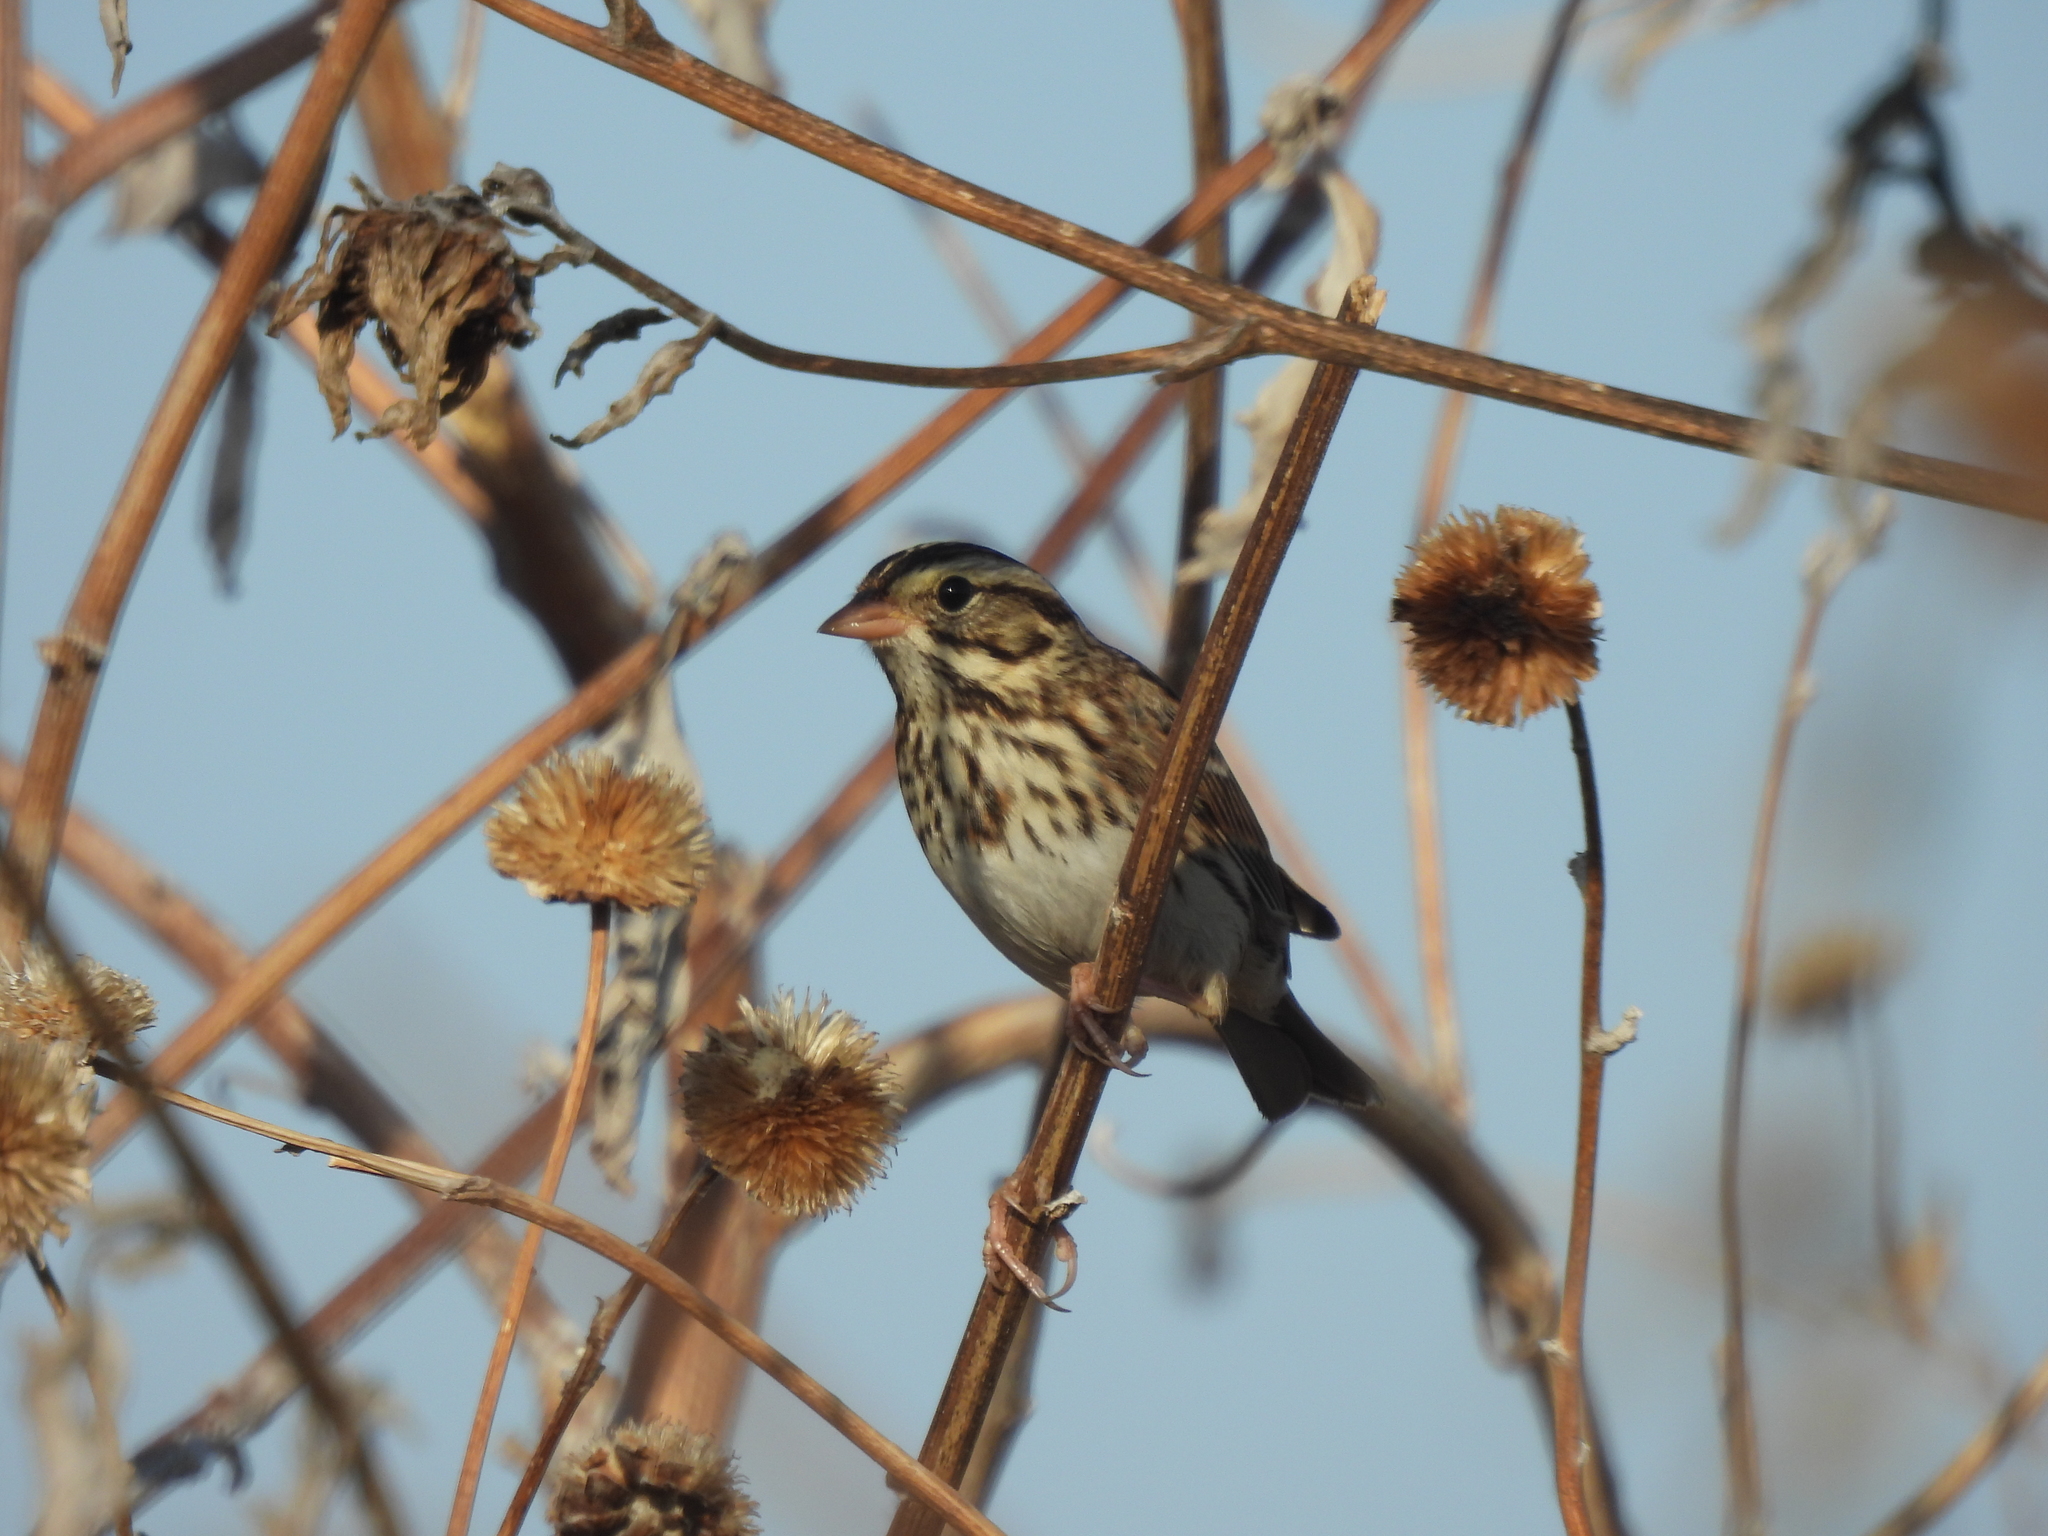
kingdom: Animalia
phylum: Chordata
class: Aves
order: Passeriformes
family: Passerellidae
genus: Passerculus
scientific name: Passerculus sandwichensis
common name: Savannah sparrow
